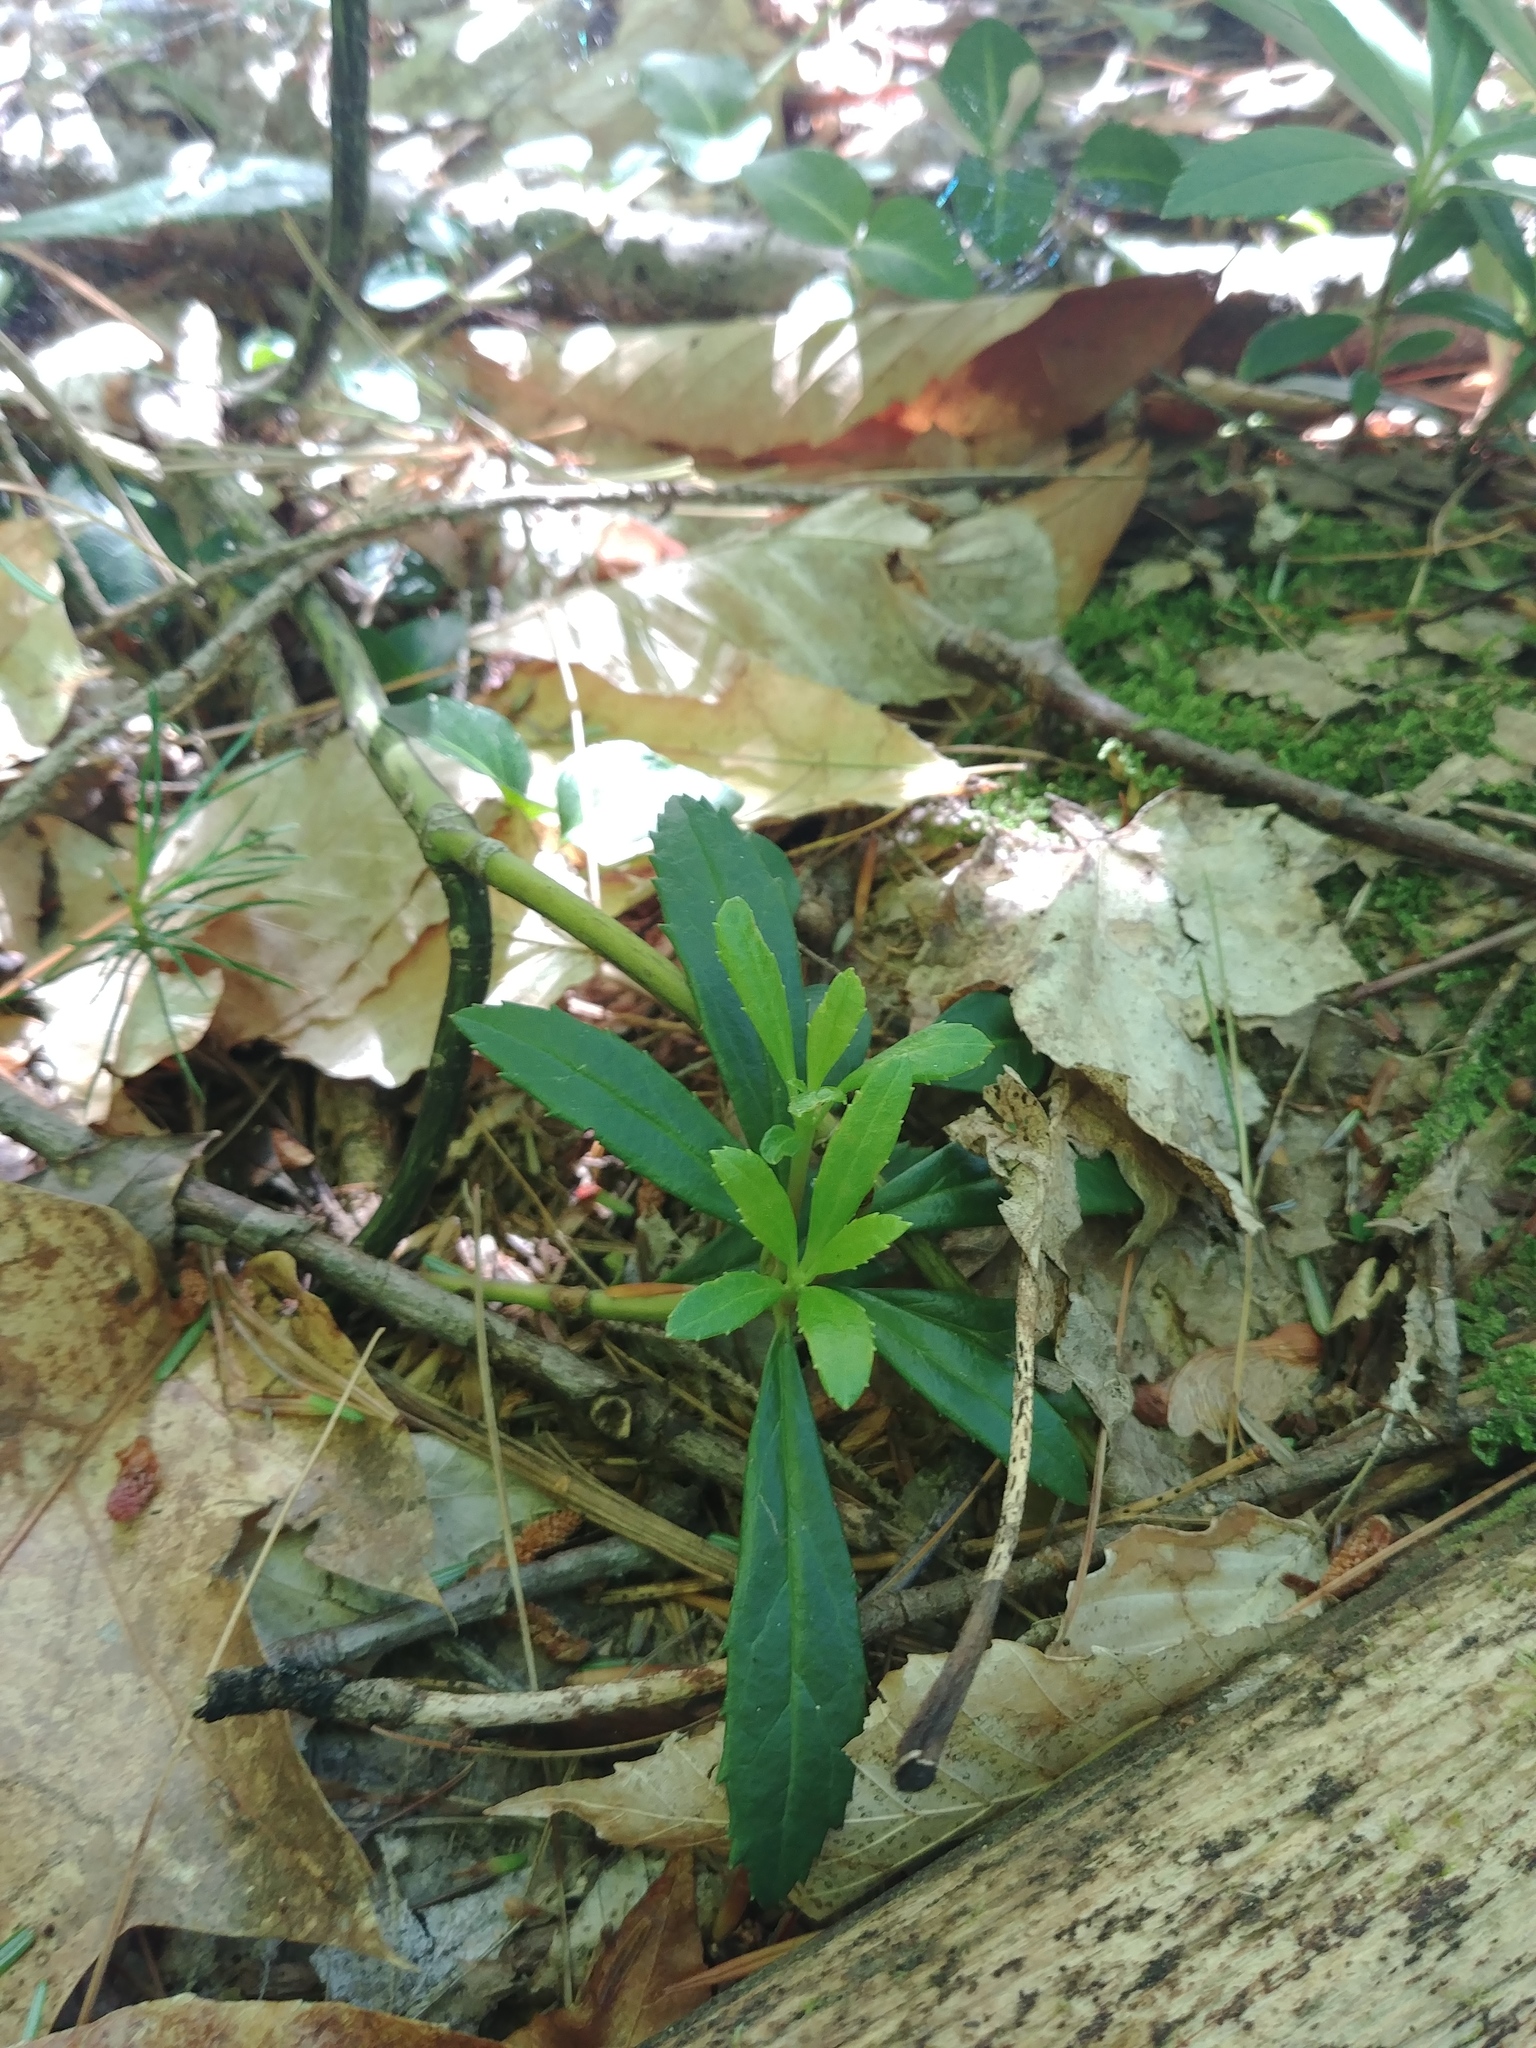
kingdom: Plantae
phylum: Tracheophyta
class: Magnoliopsida
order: Ericales
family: Ericaceae
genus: Chimaphila
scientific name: Chimaphila umbellata
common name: Pipsissewa
